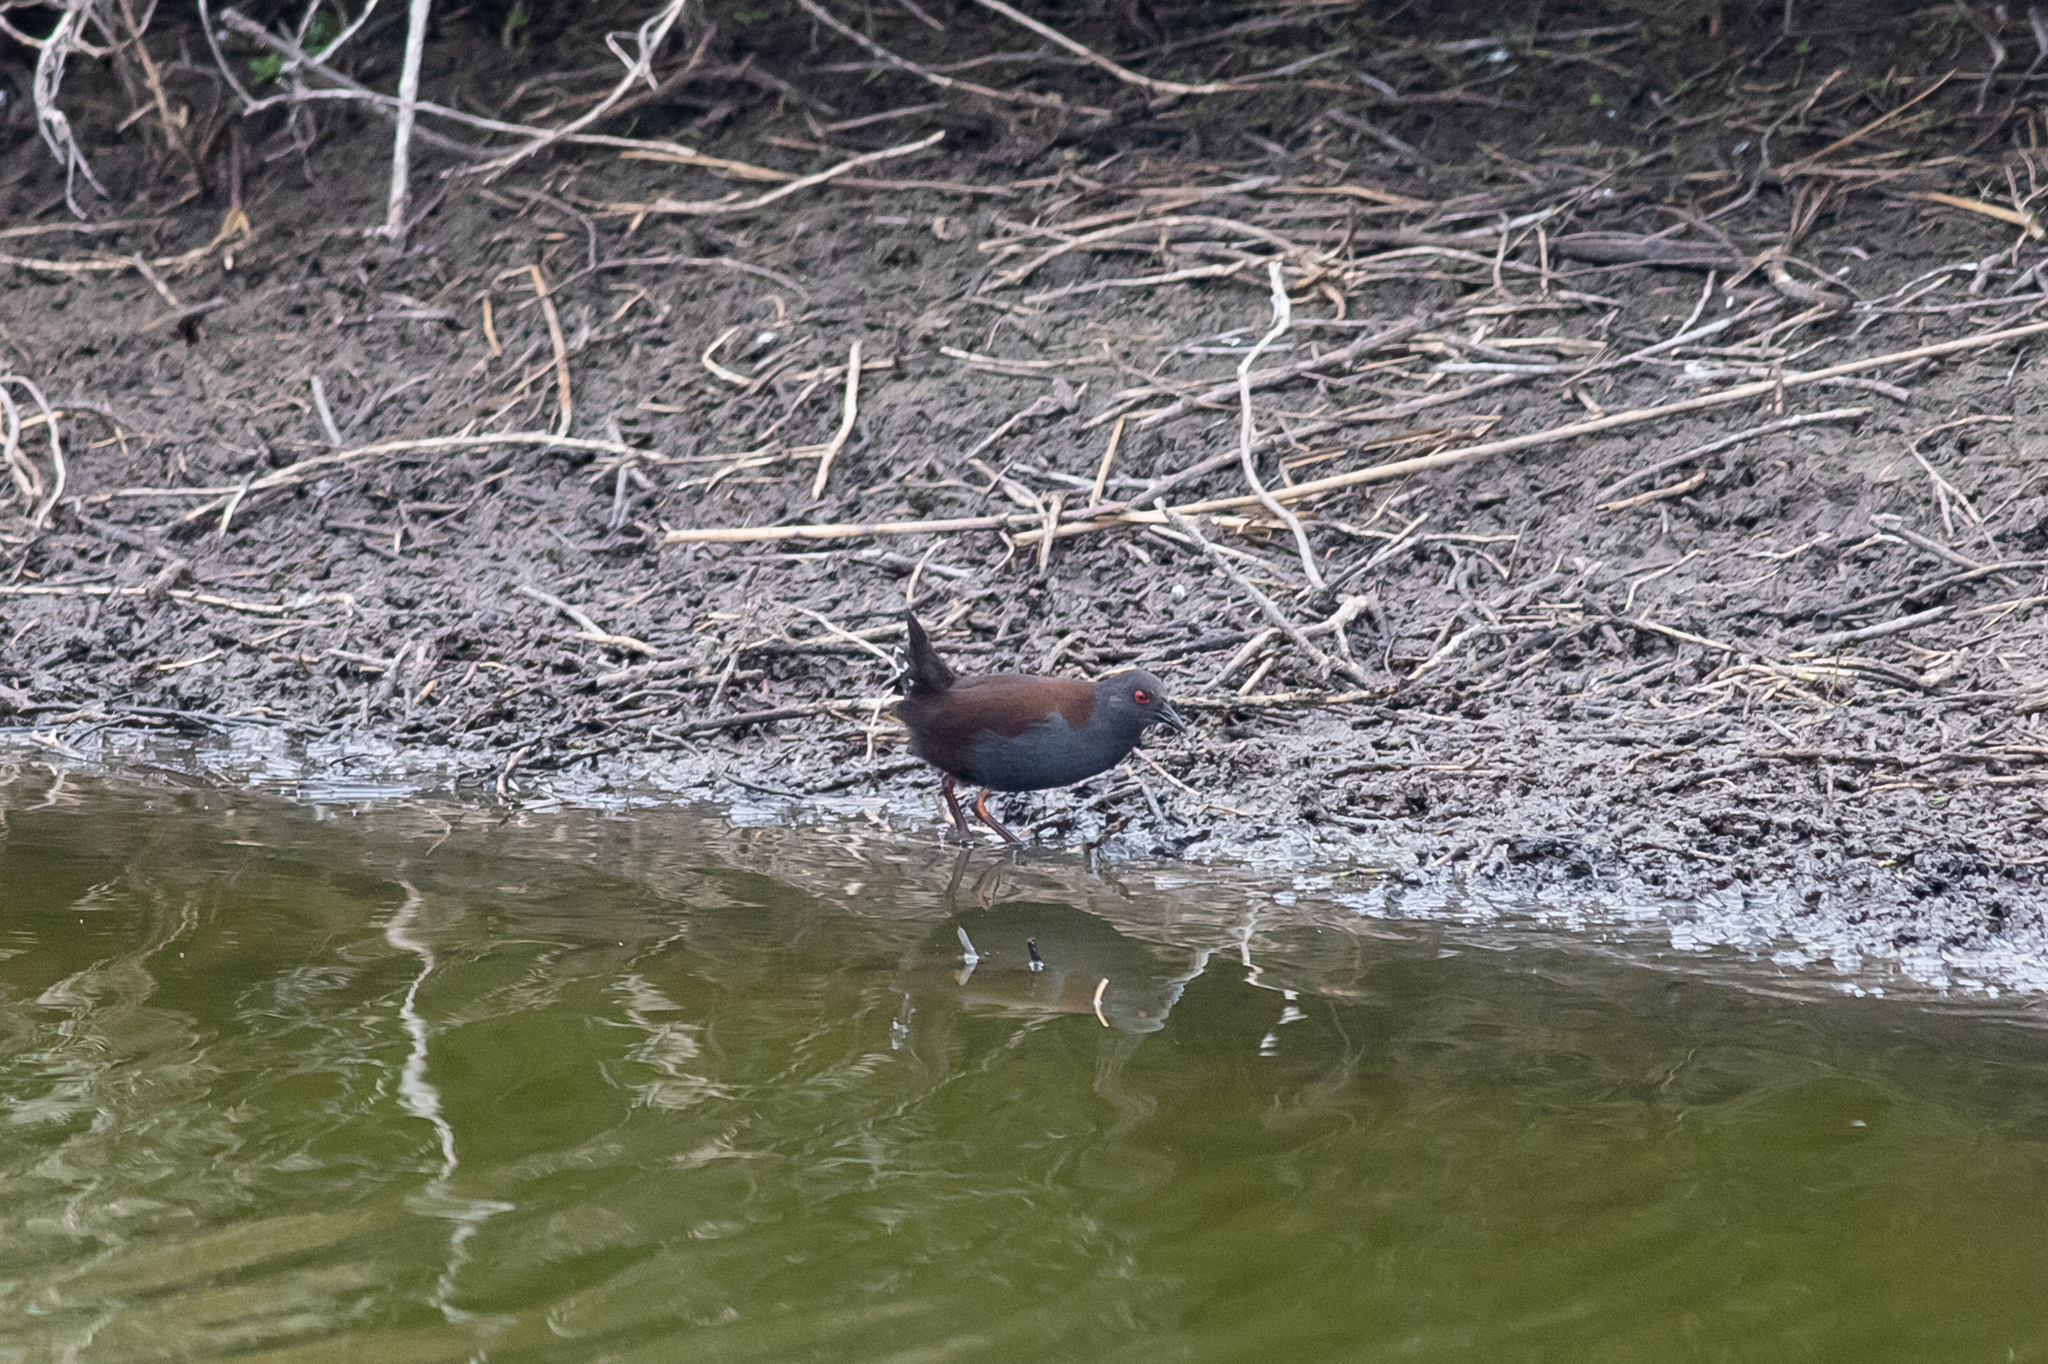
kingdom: Animalia
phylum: Chordata
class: Aves
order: Gruiformes
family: Rallidae
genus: Porzana
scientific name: Porzana tabuensis
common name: Spotless crake
